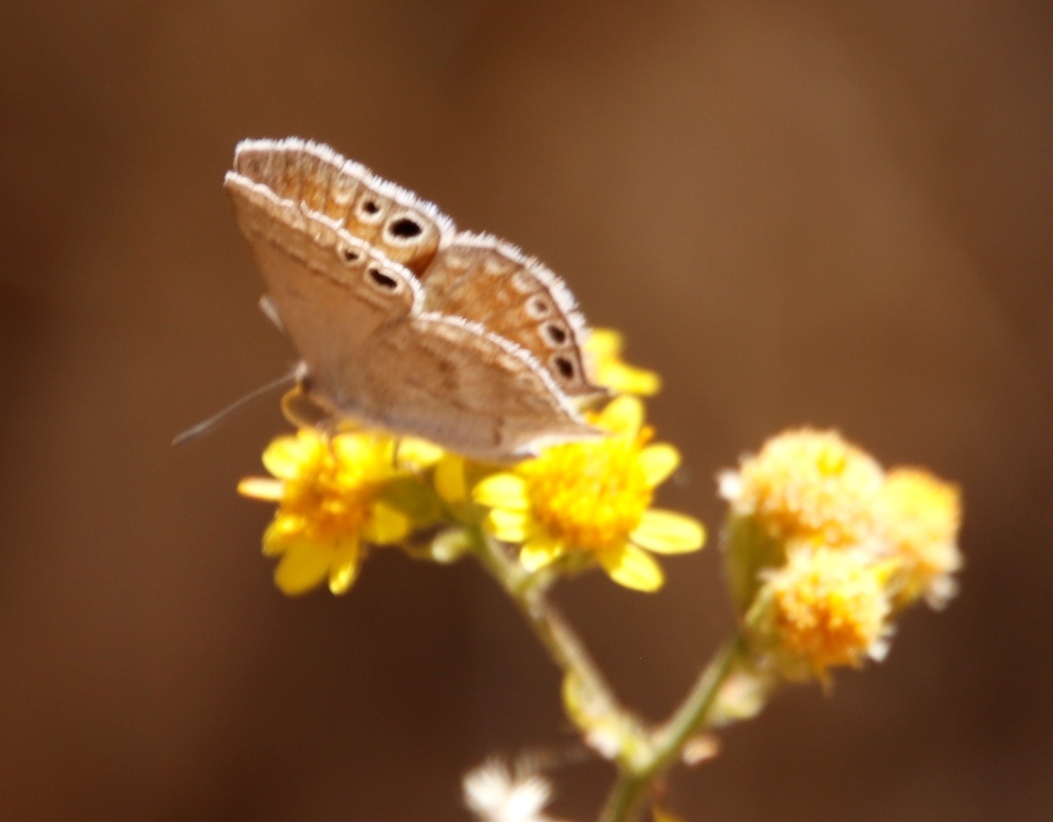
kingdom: Animalia
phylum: Arthropoda
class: Insecta
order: Lepidoptera
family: Lycaenidae
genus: Leptomyrina
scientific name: Leptomyrina henningi
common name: Henning's black-eye
